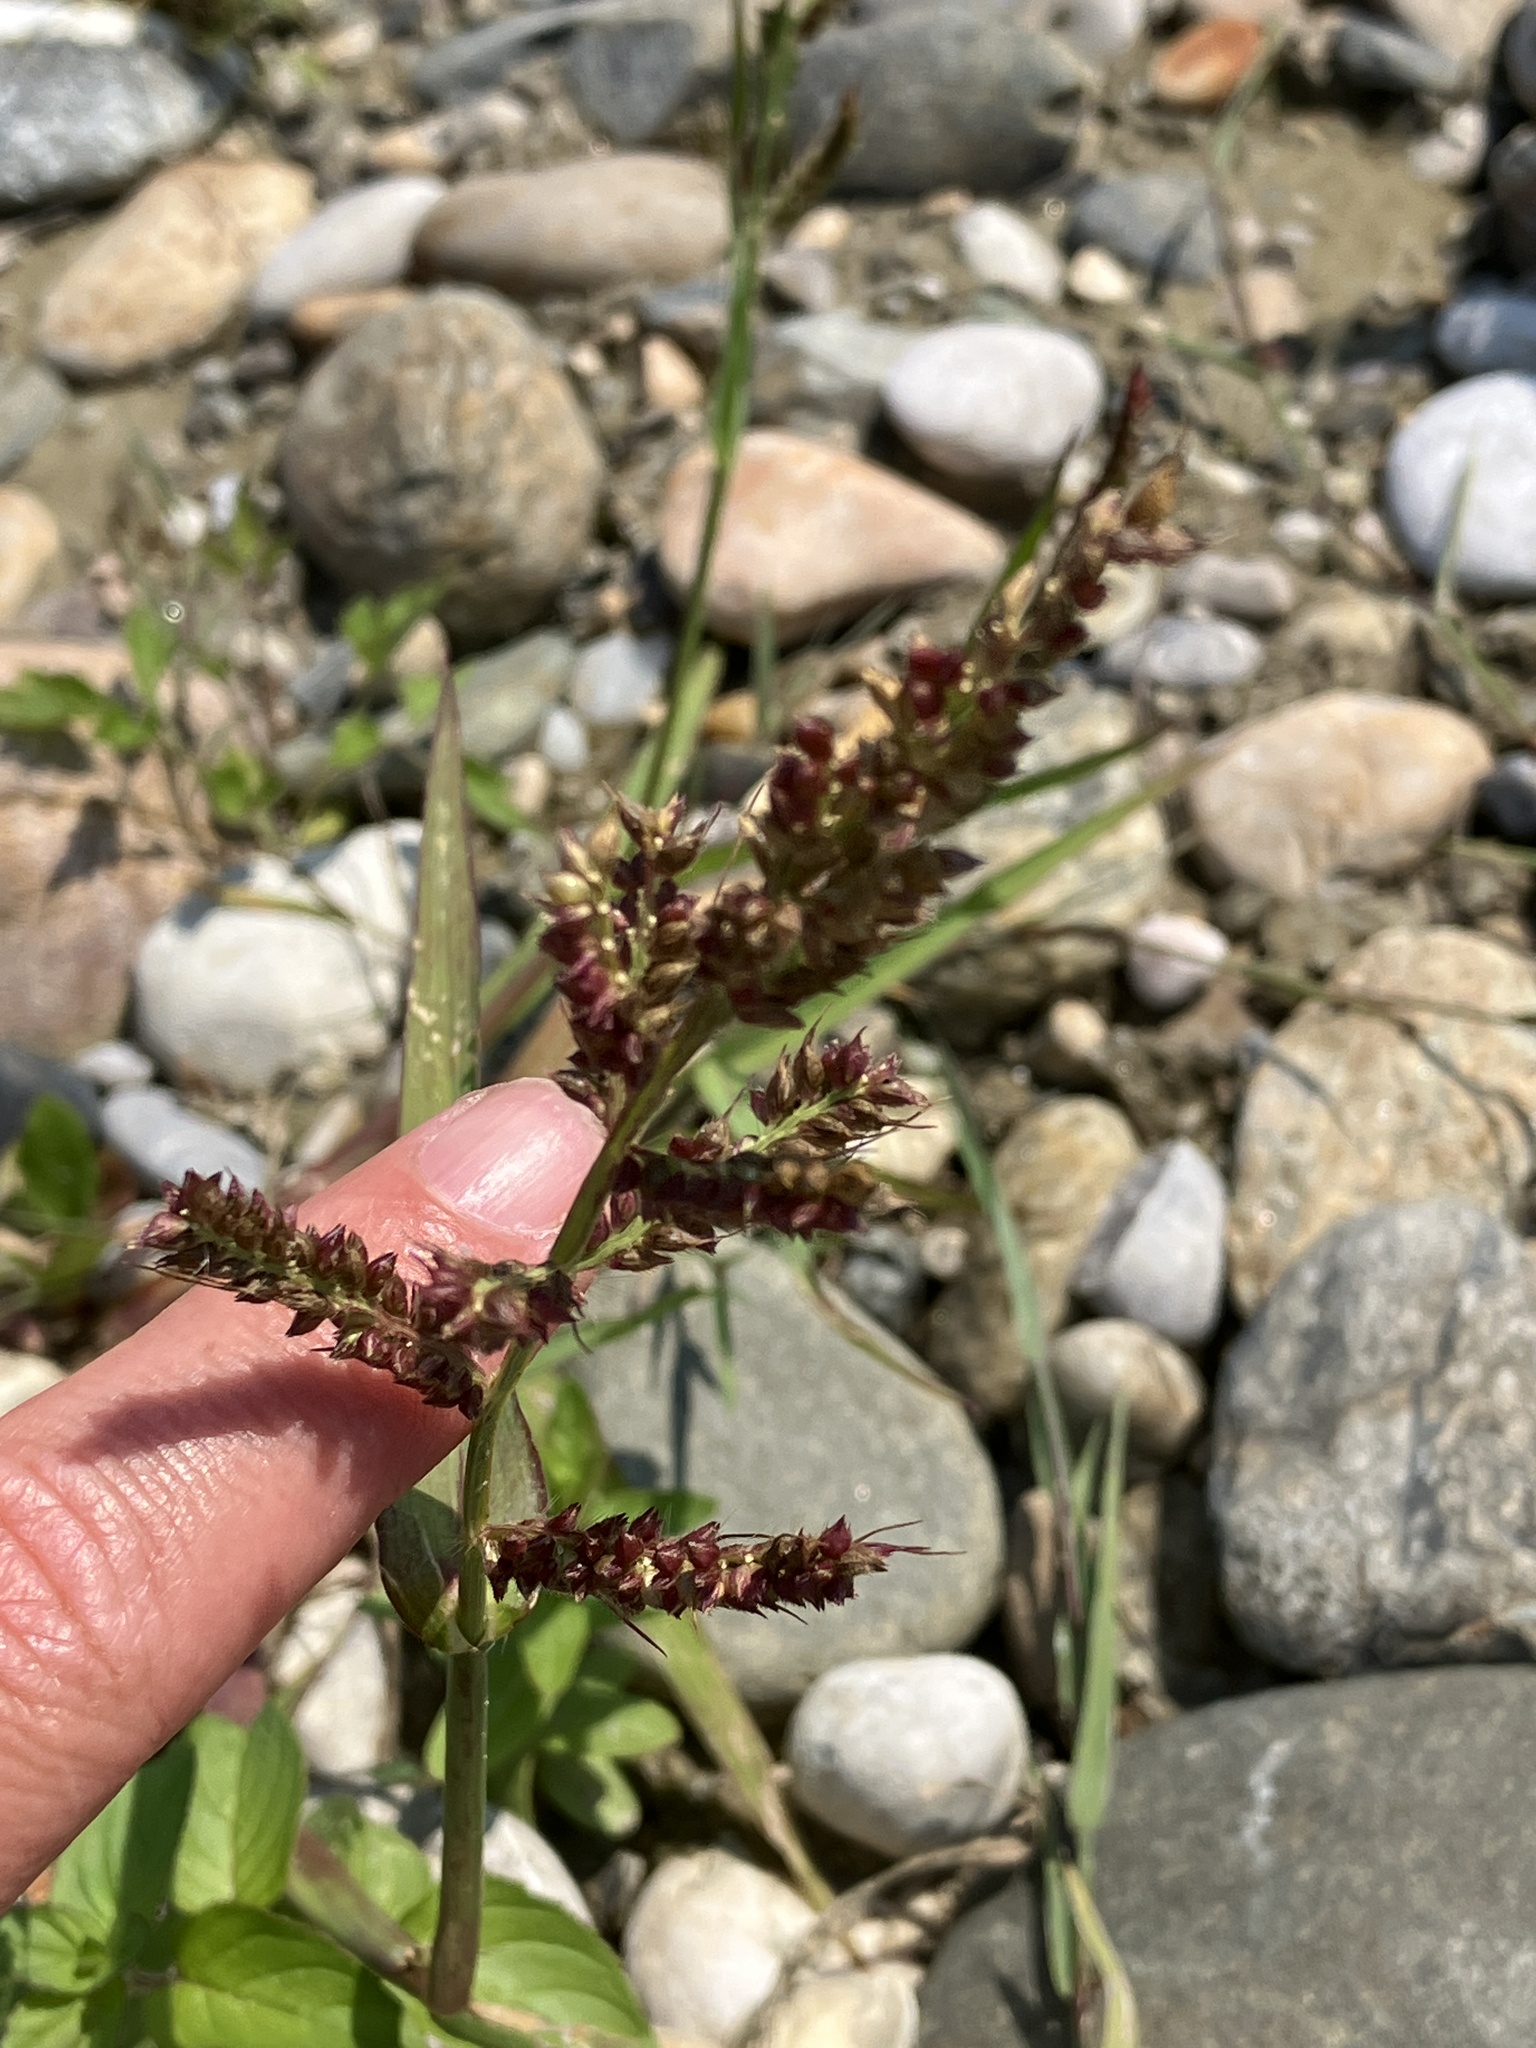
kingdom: Plantae
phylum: Tracheophyta
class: Liliopsida
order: Poales
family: Poaceae
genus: Echinochloa
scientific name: Echinochloa crus-galli
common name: Cockspur
